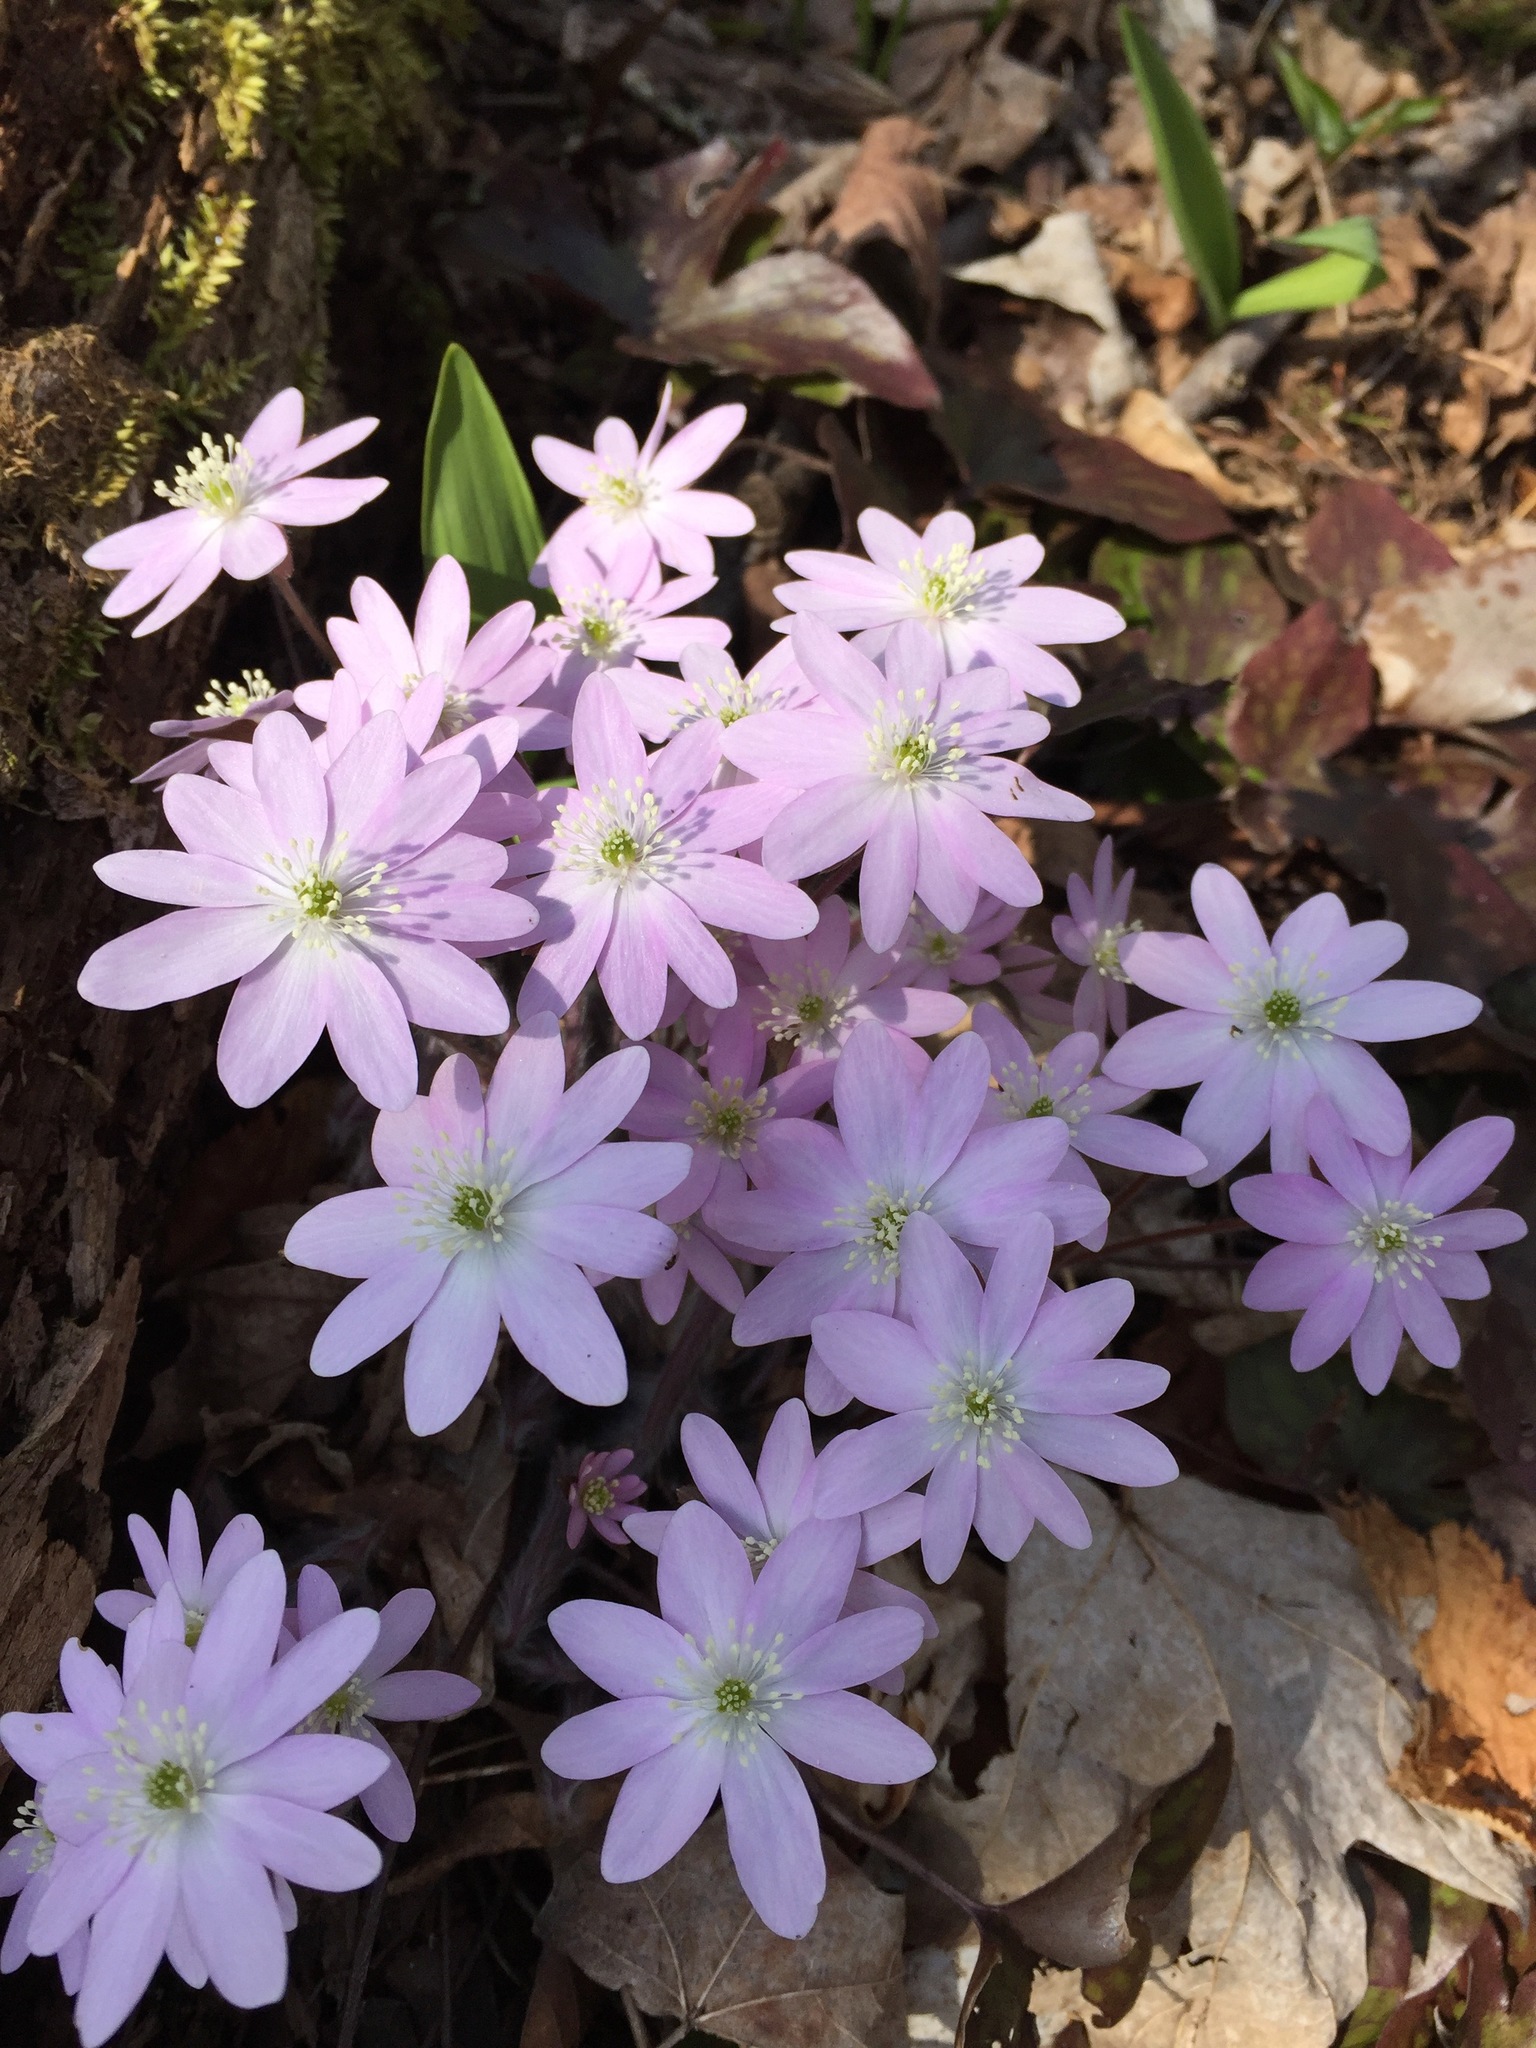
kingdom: Plantae
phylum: Tracheophyta
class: Magnoliopsida
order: Ranunculales
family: Ranunculaceae
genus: Hepatica
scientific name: Hepatica acutiloba
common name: Sharp-lobed hepatica
